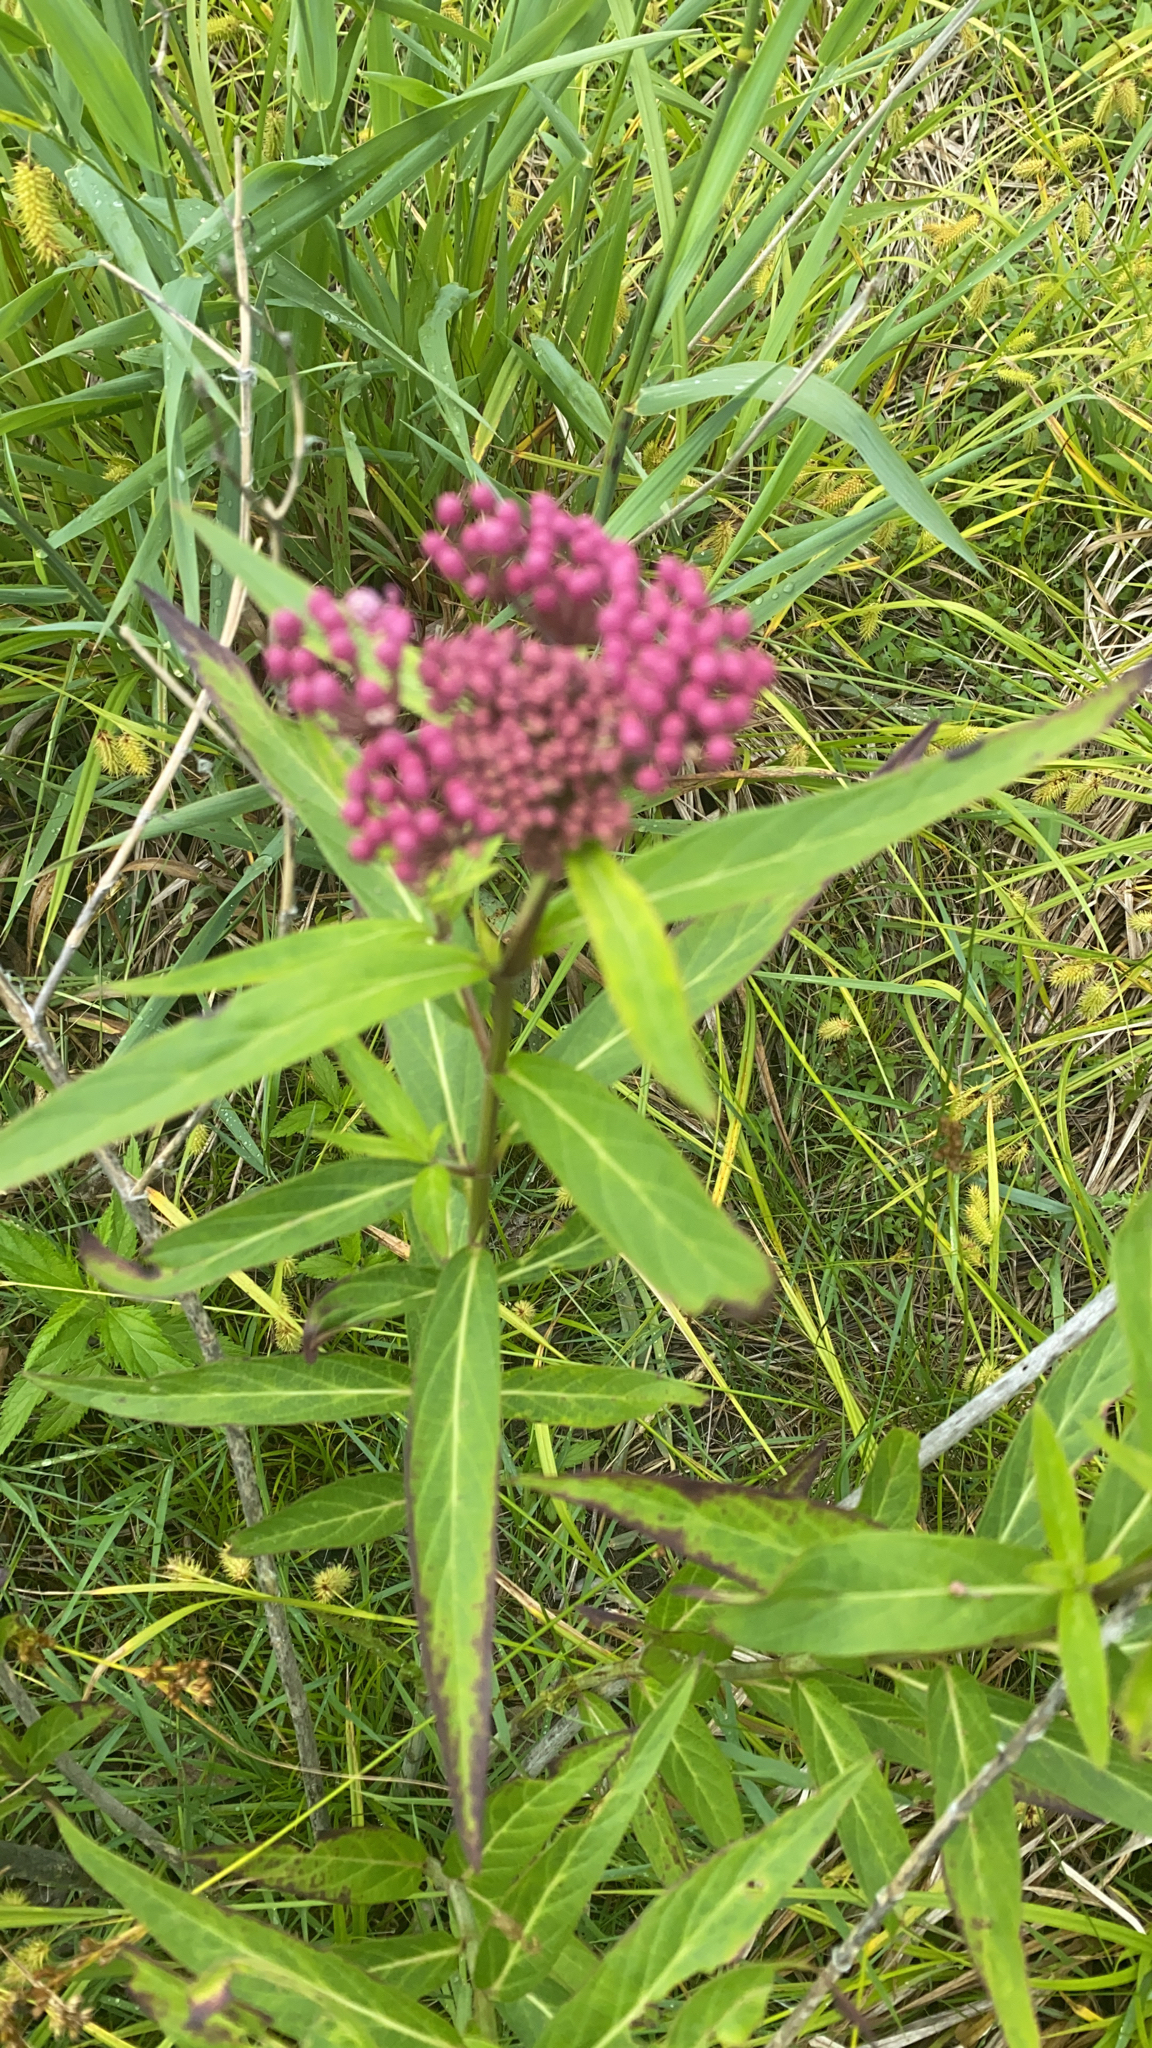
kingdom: Plantae
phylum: Tracheophyta
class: Magnoliopsida
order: Gentianales
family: Apocynaceae
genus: Asclepias
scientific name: Asclepias incarnata
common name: Swamp milkweed
